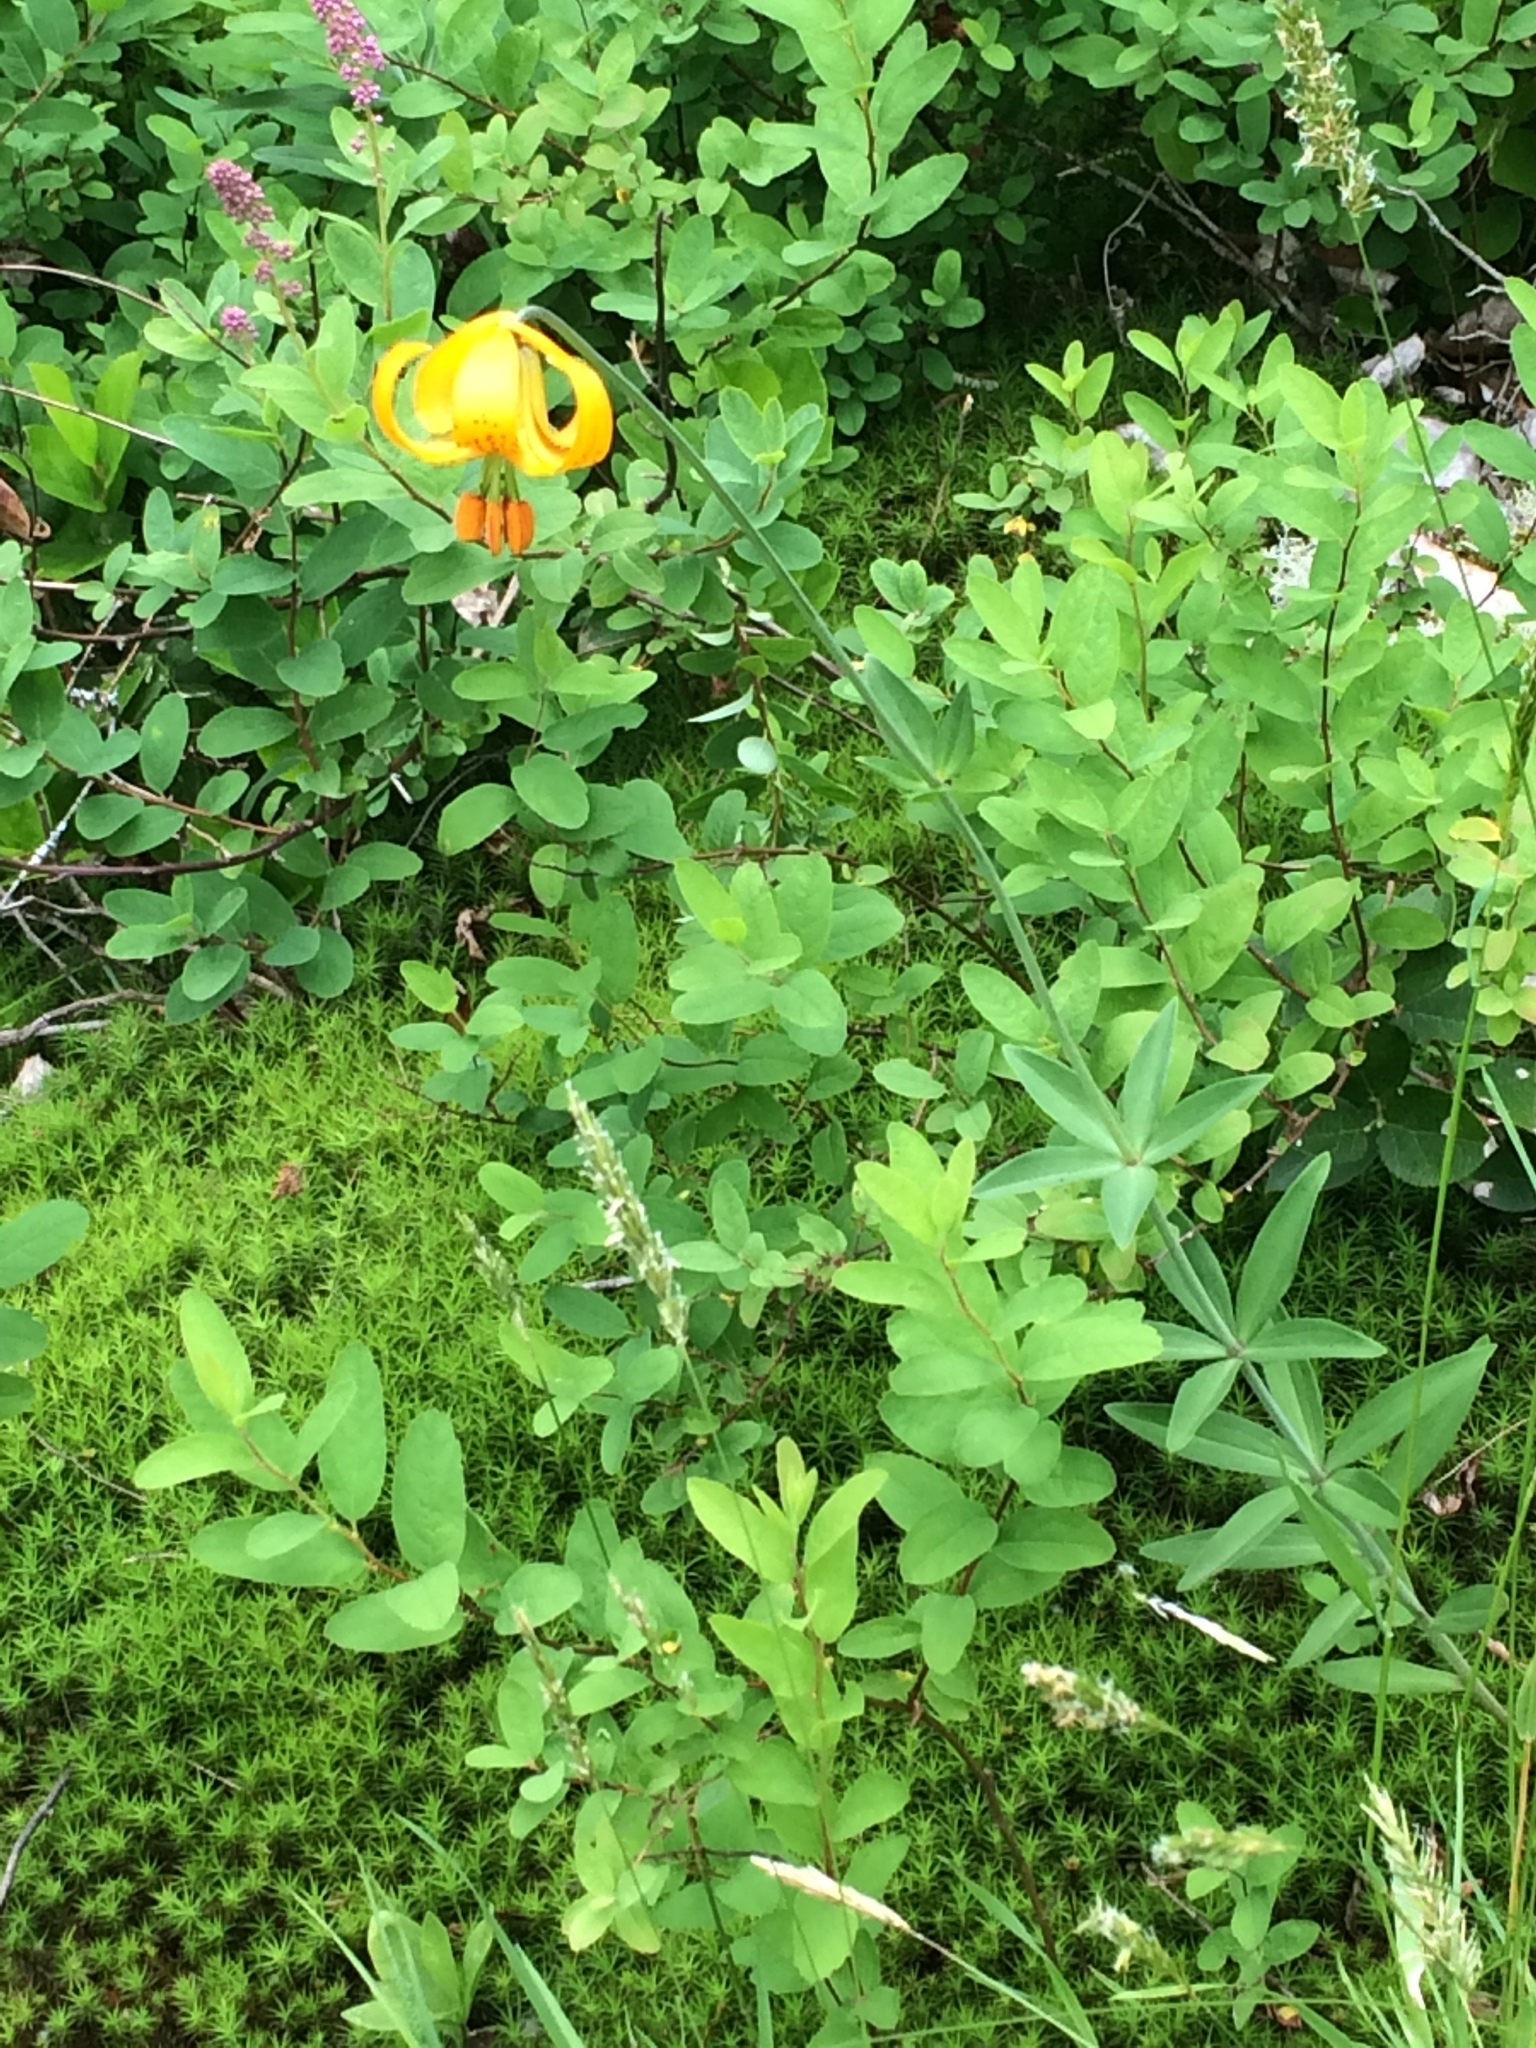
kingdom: Plantae
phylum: Tracheophyta
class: Liliopsida
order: Liliales
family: Liliaceae
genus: Lilium
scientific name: Lilium columbianum
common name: Columbia lily
